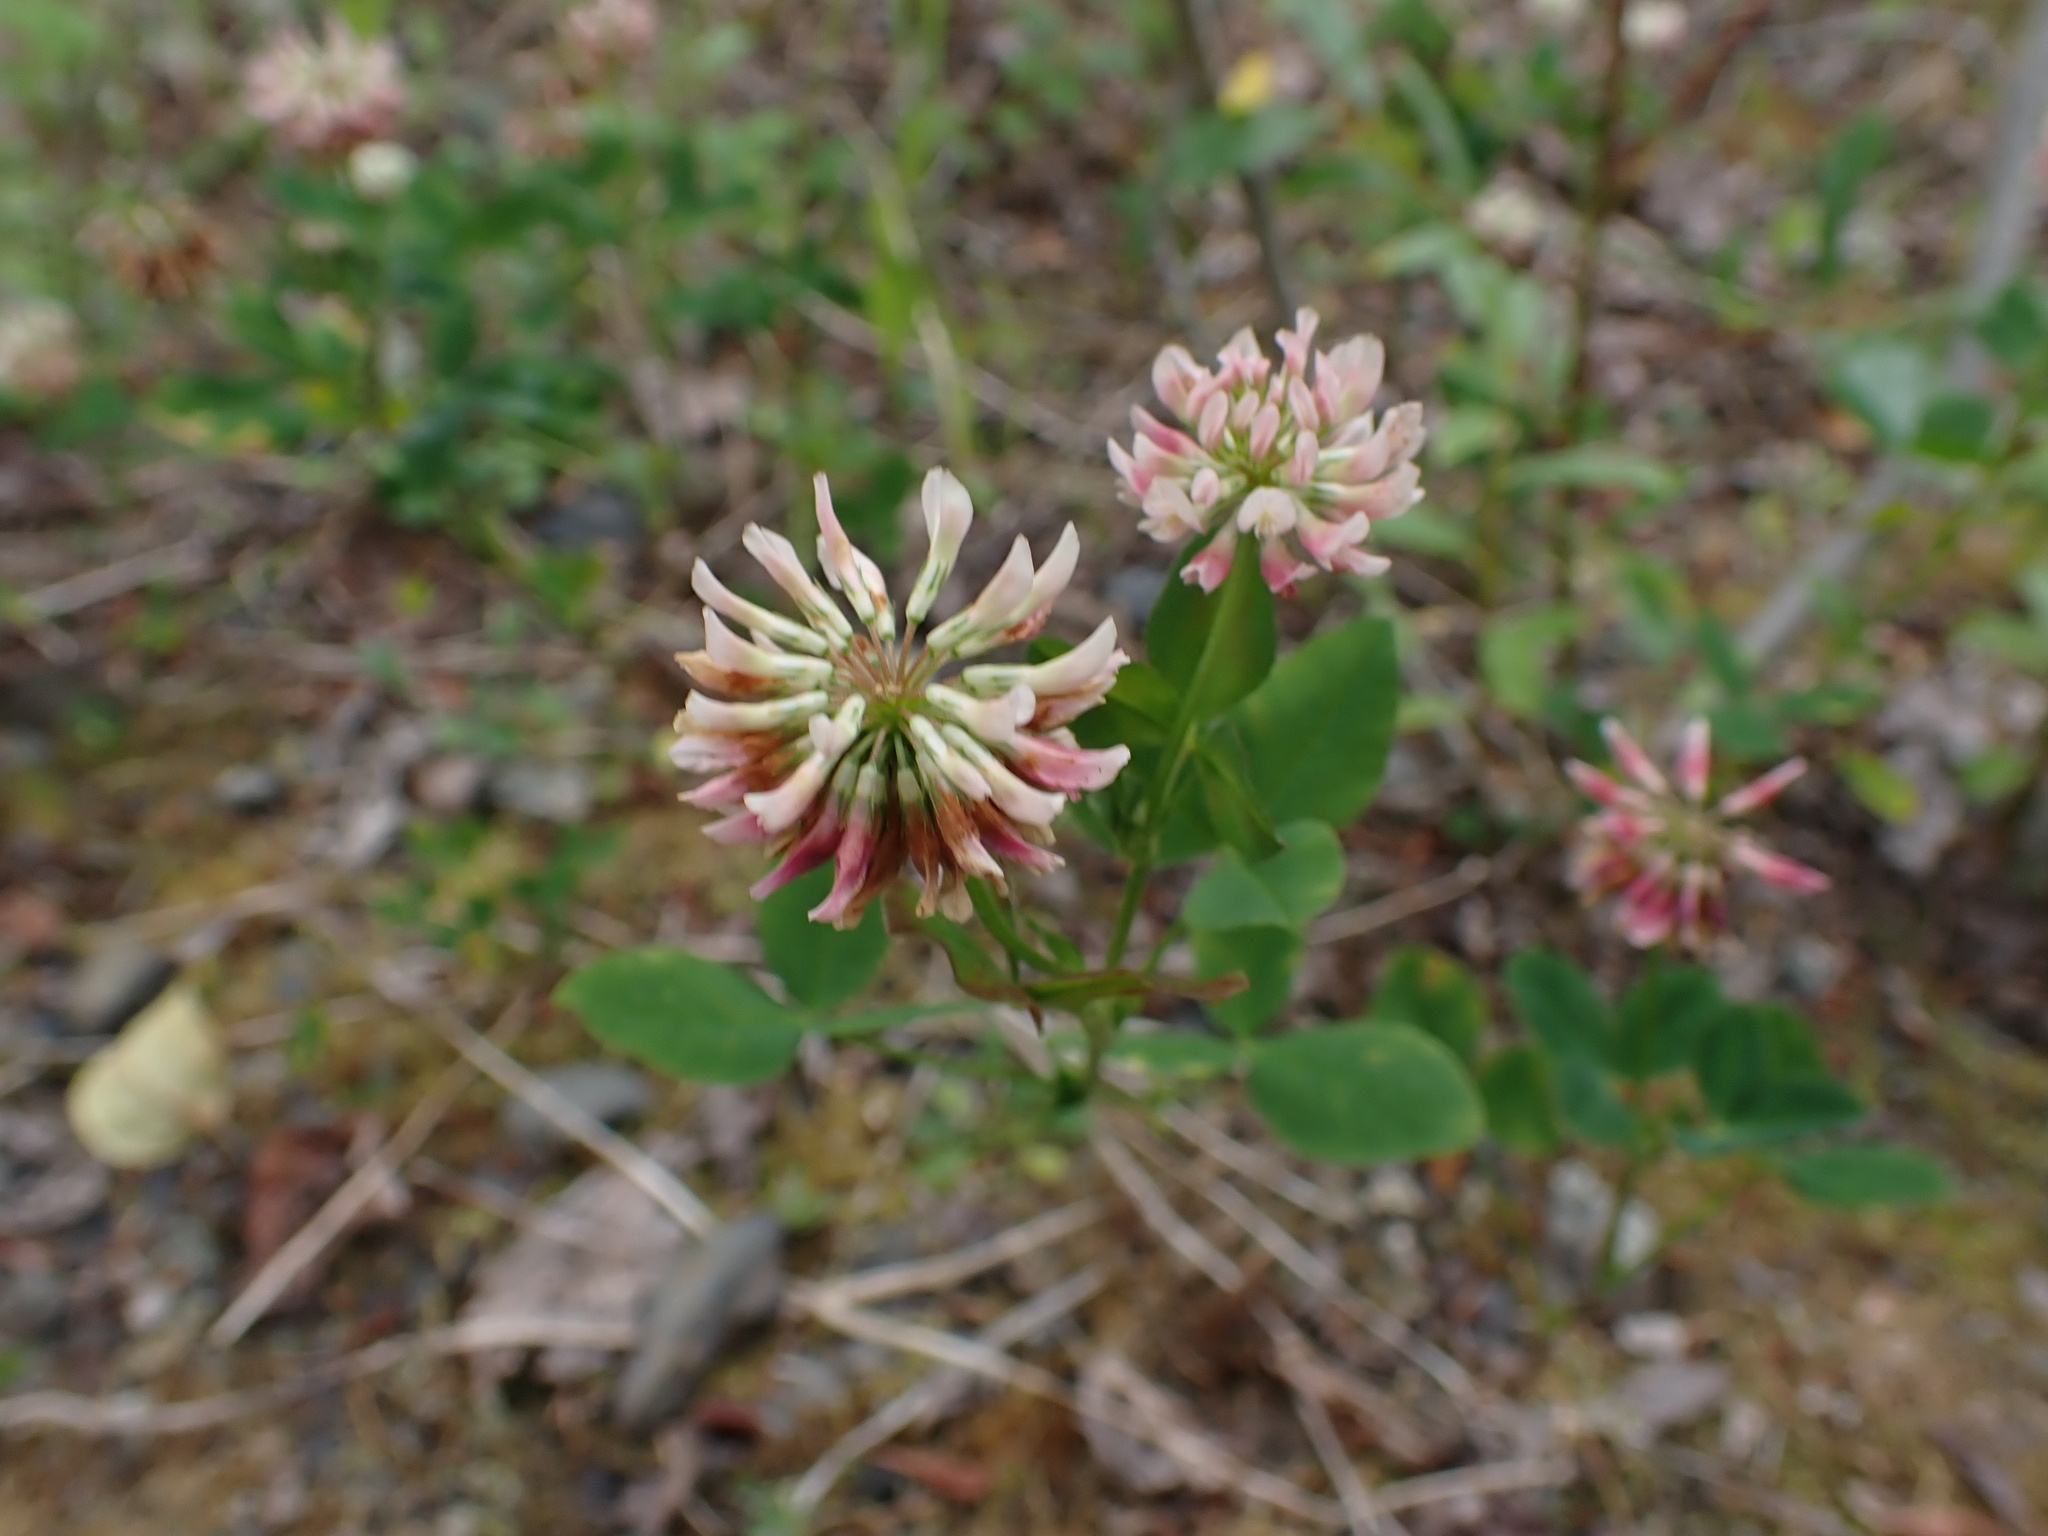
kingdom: Plantae
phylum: Tracheophyta
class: Magnoliopsida
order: Fabales
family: Fabaceae
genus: Trifolium
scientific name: Trifolium hybridum
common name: Alsike clover
